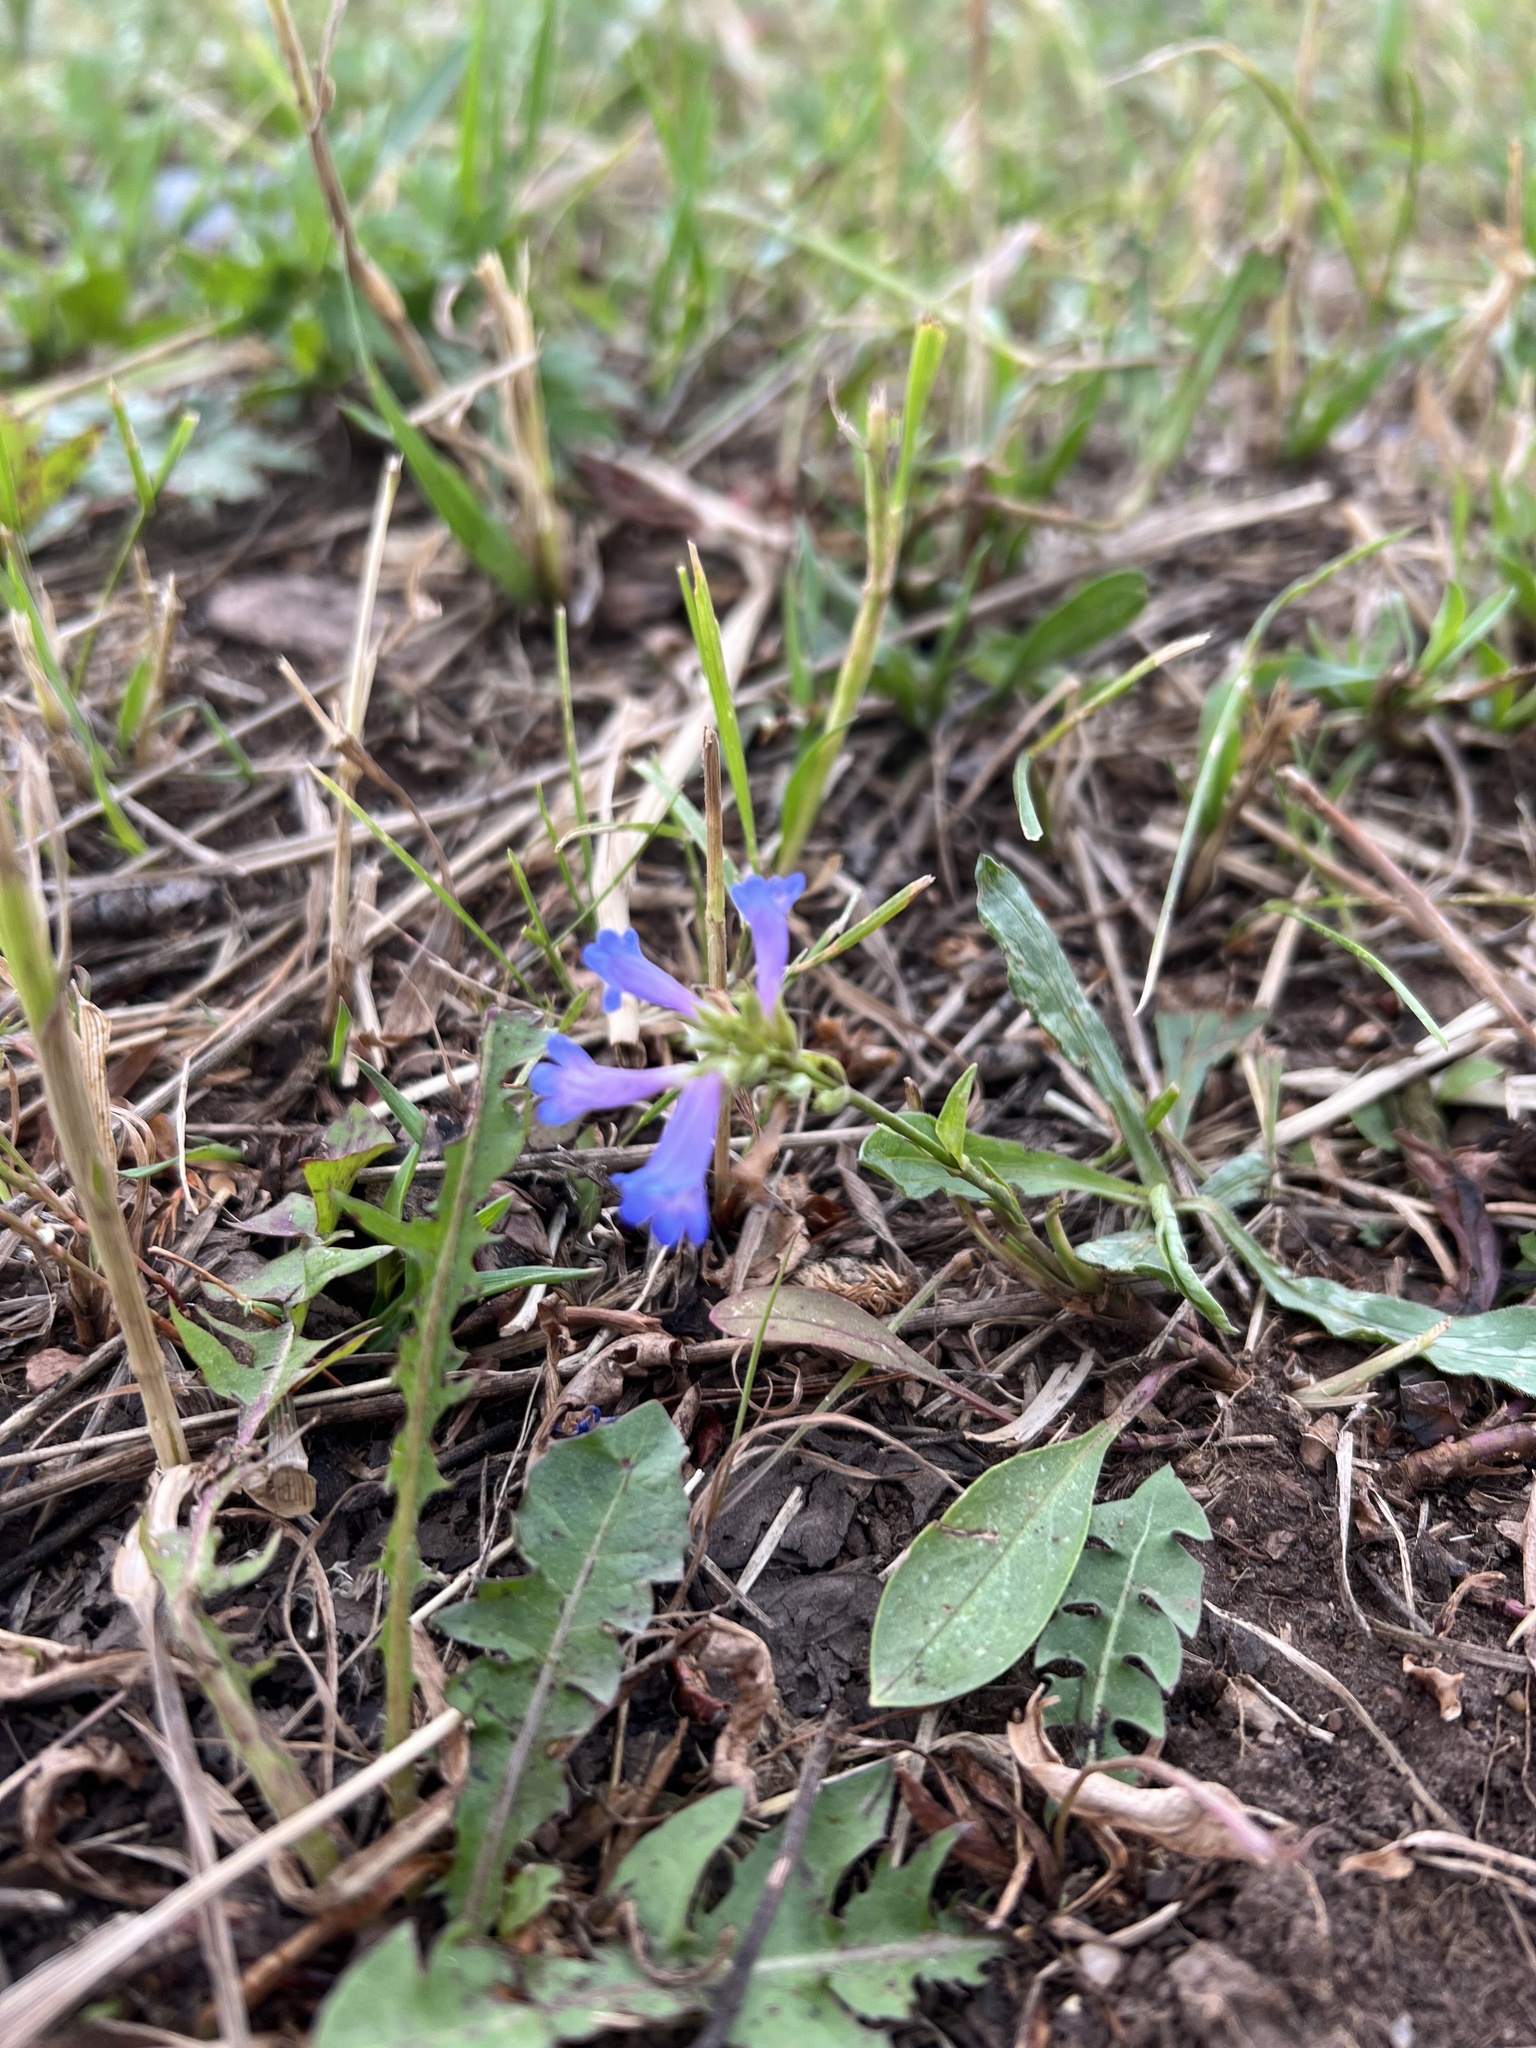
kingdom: Plantae
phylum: Tracheophyta
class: Magnoliopsida
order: Lamiales
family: Plantaginaceae
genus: Penstemon
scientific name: Penstemon rydbergii
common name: Rydberg's beardtongue
